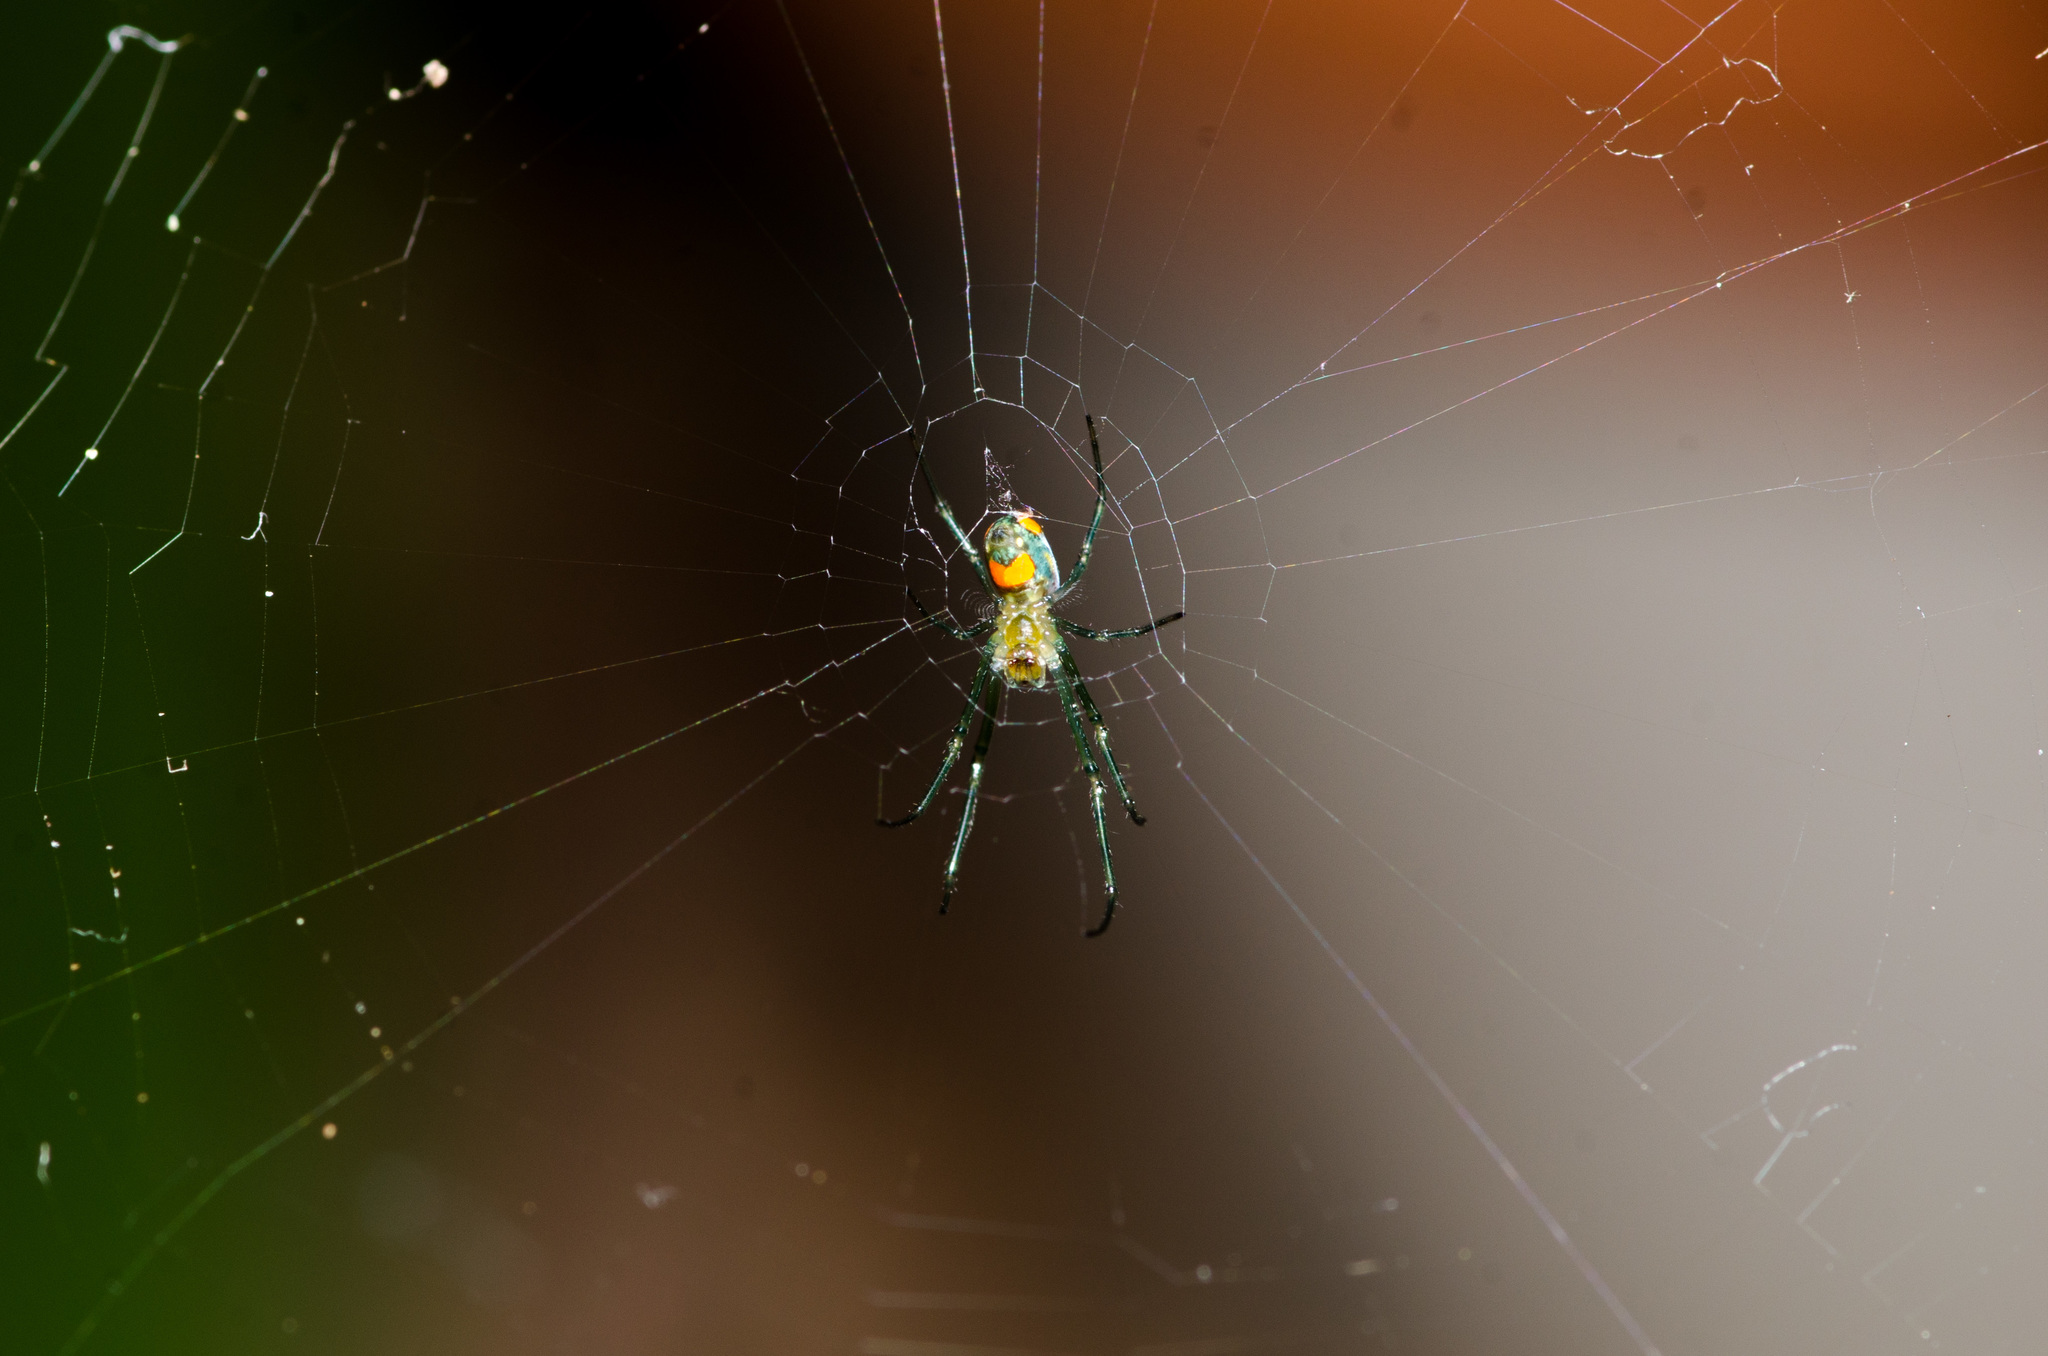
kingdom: Animalia
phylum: Arthropoda
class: Arachnida
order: Araneae
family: Tetragnathidae
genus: Leucauge
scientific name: Leucauge argyrobapta
